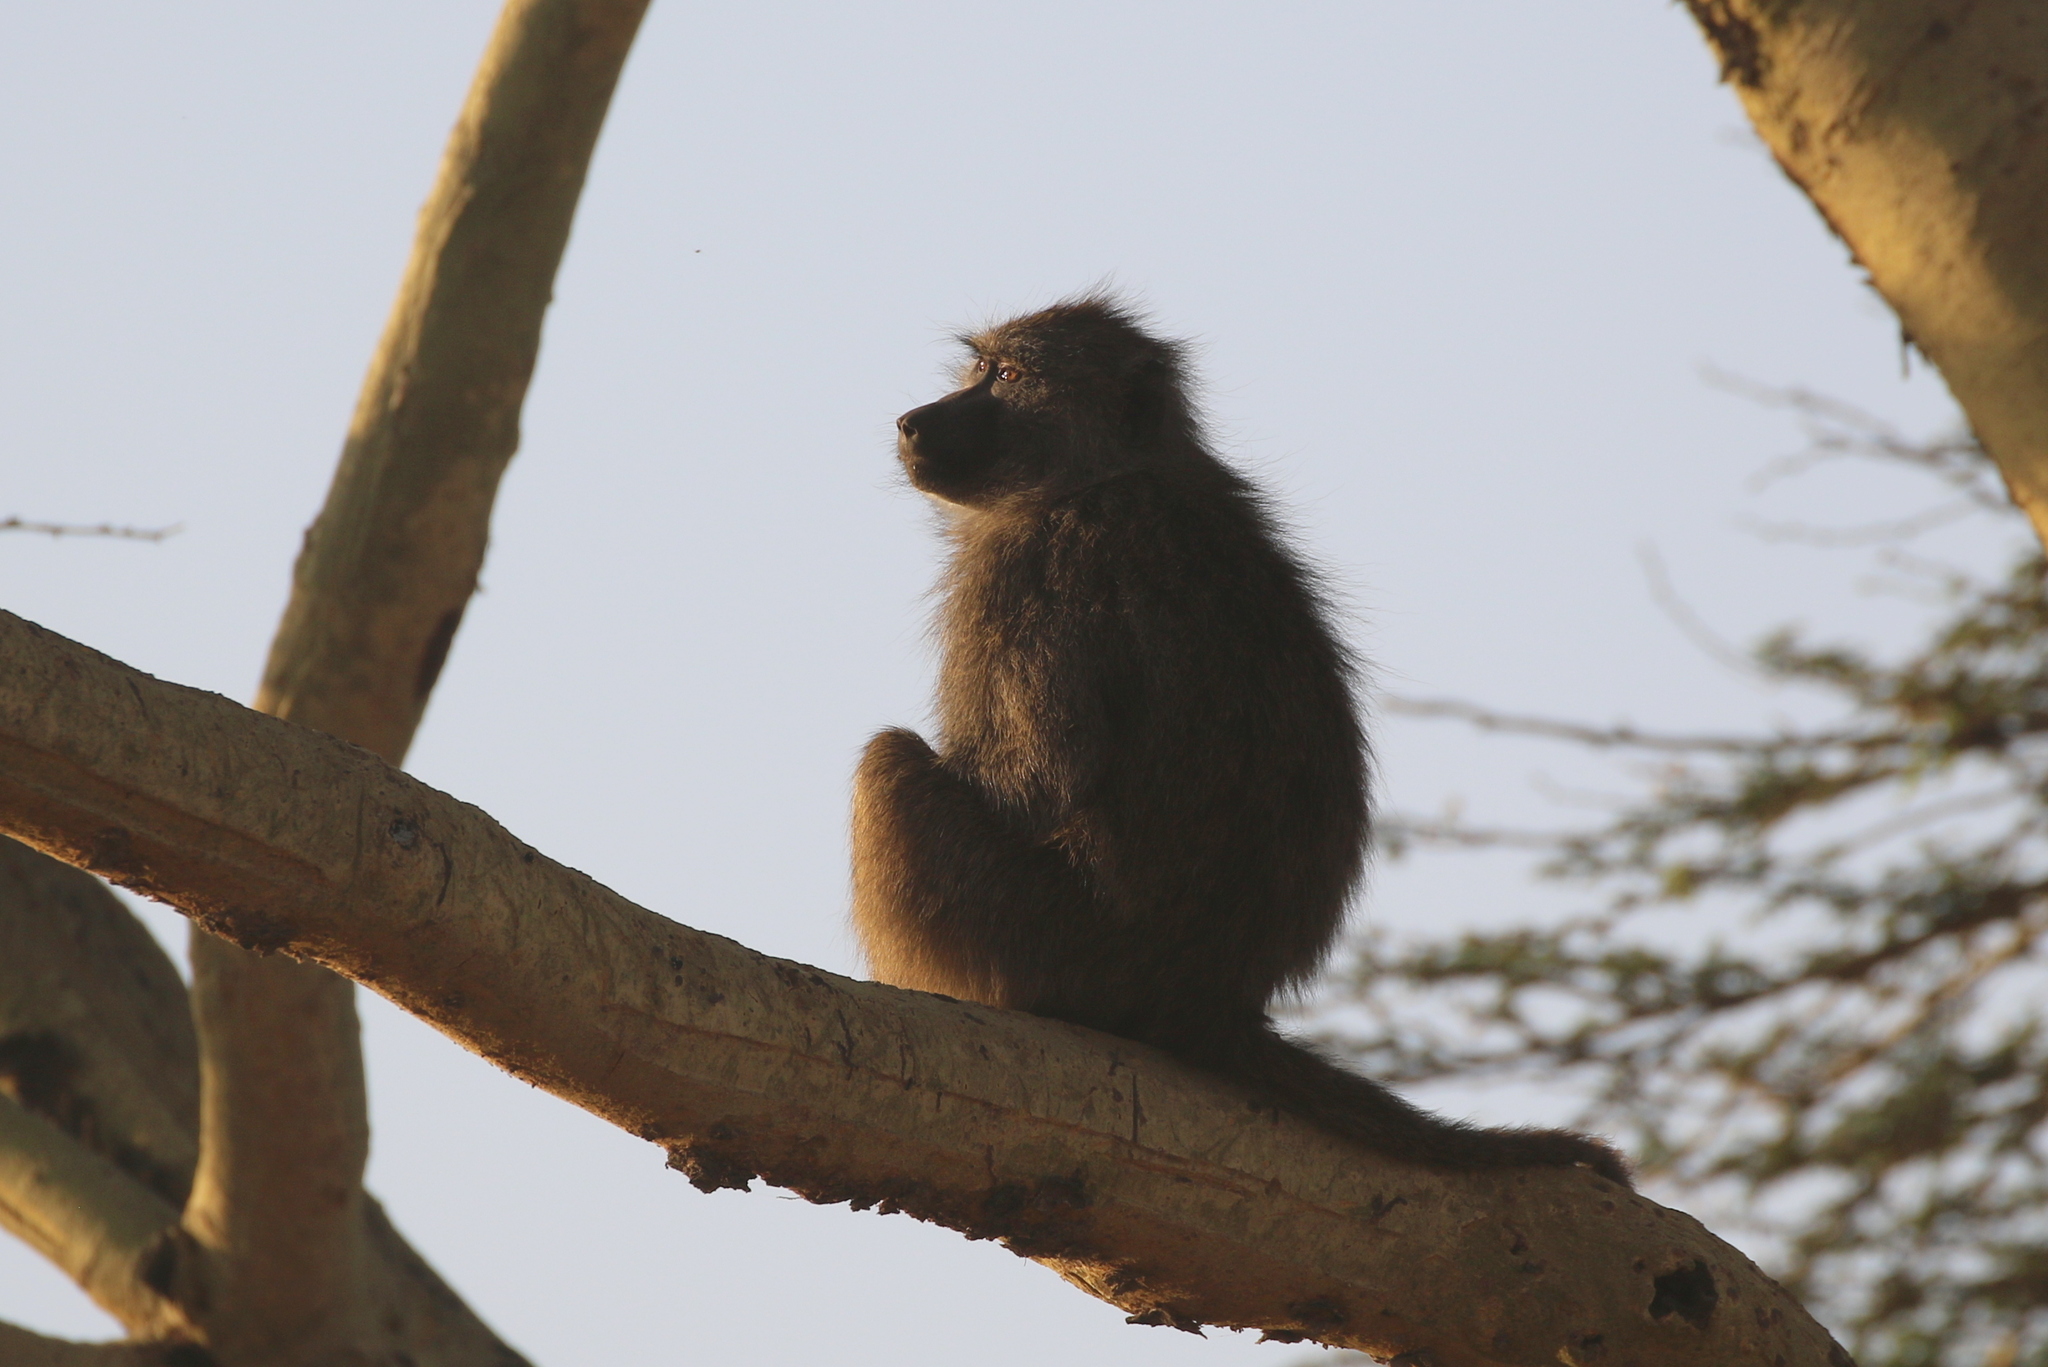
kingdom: Animalia
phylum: Chordata
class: Mammalia
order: Primates
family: Cercopithecidae
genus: Papio
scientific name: Papio anubis
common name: Olive baboon
